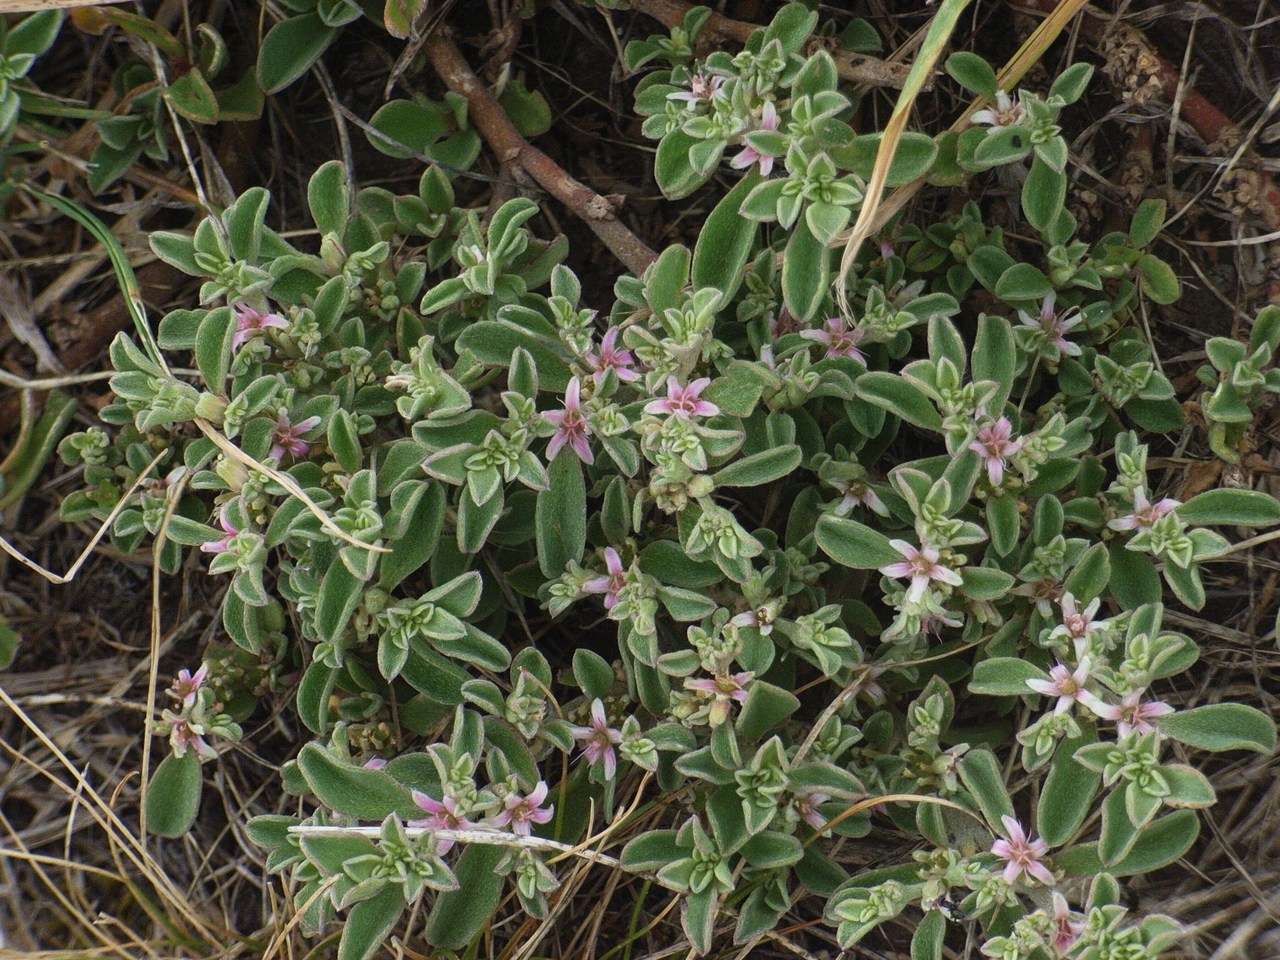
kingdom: Plantae
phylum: Tracheophyta
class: Magnoliopsida
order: Caryophyllales
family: Aizoaceae
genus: Aizoon
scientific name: Aizoon pubescens
